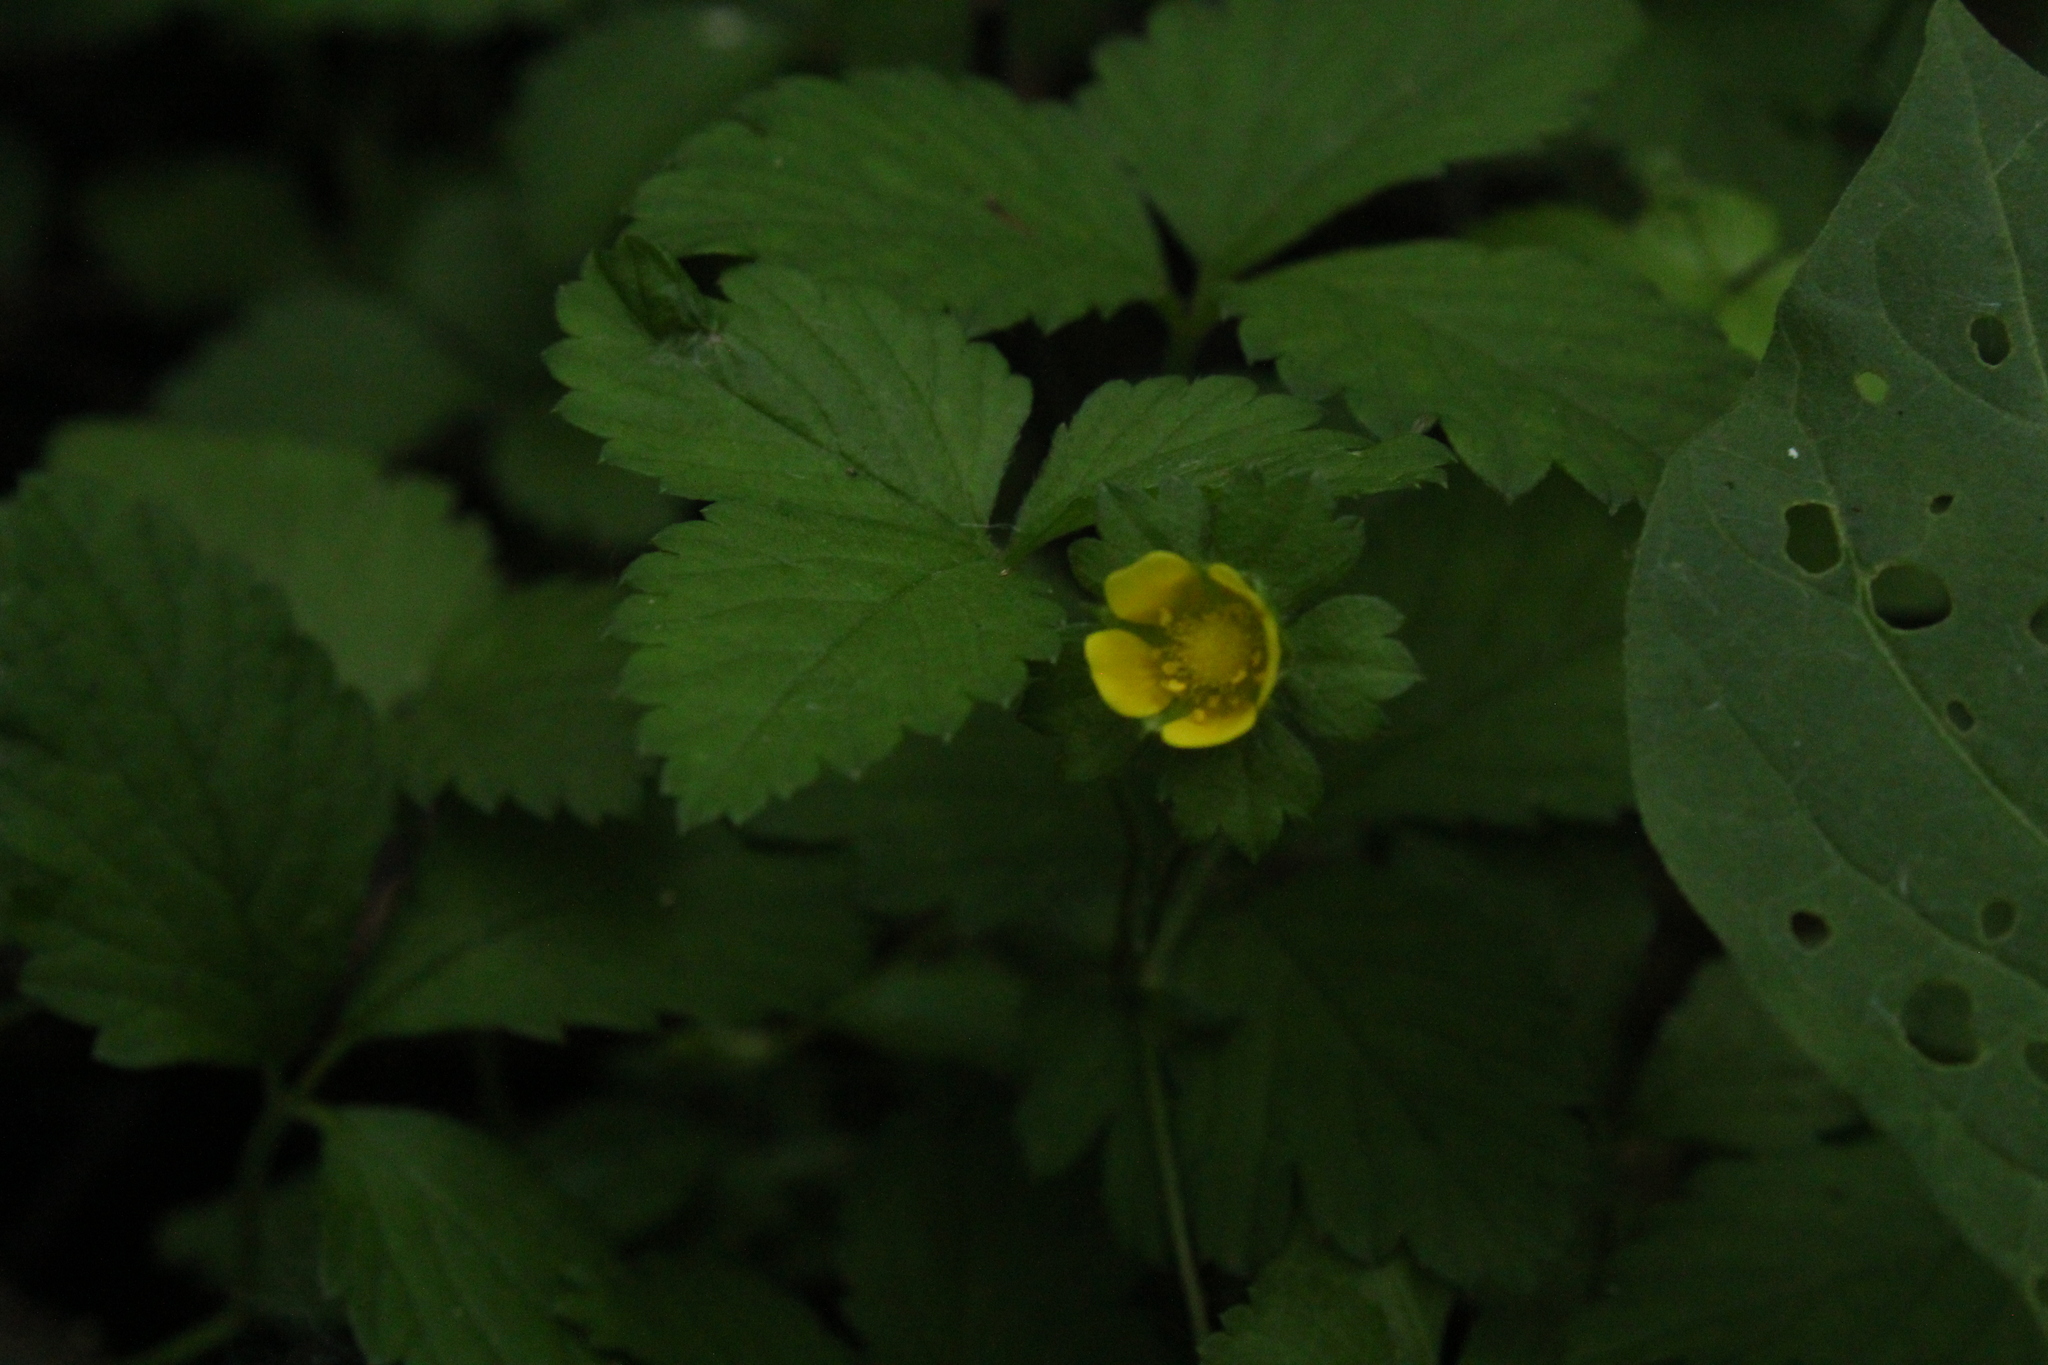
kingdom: Plantae
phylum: Tracheophyta
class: Magnoliopsida
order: Rosales
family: Rosaceae
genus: Potentilla
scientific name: Potentilla indica
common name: Yellow-flowered strawberry
